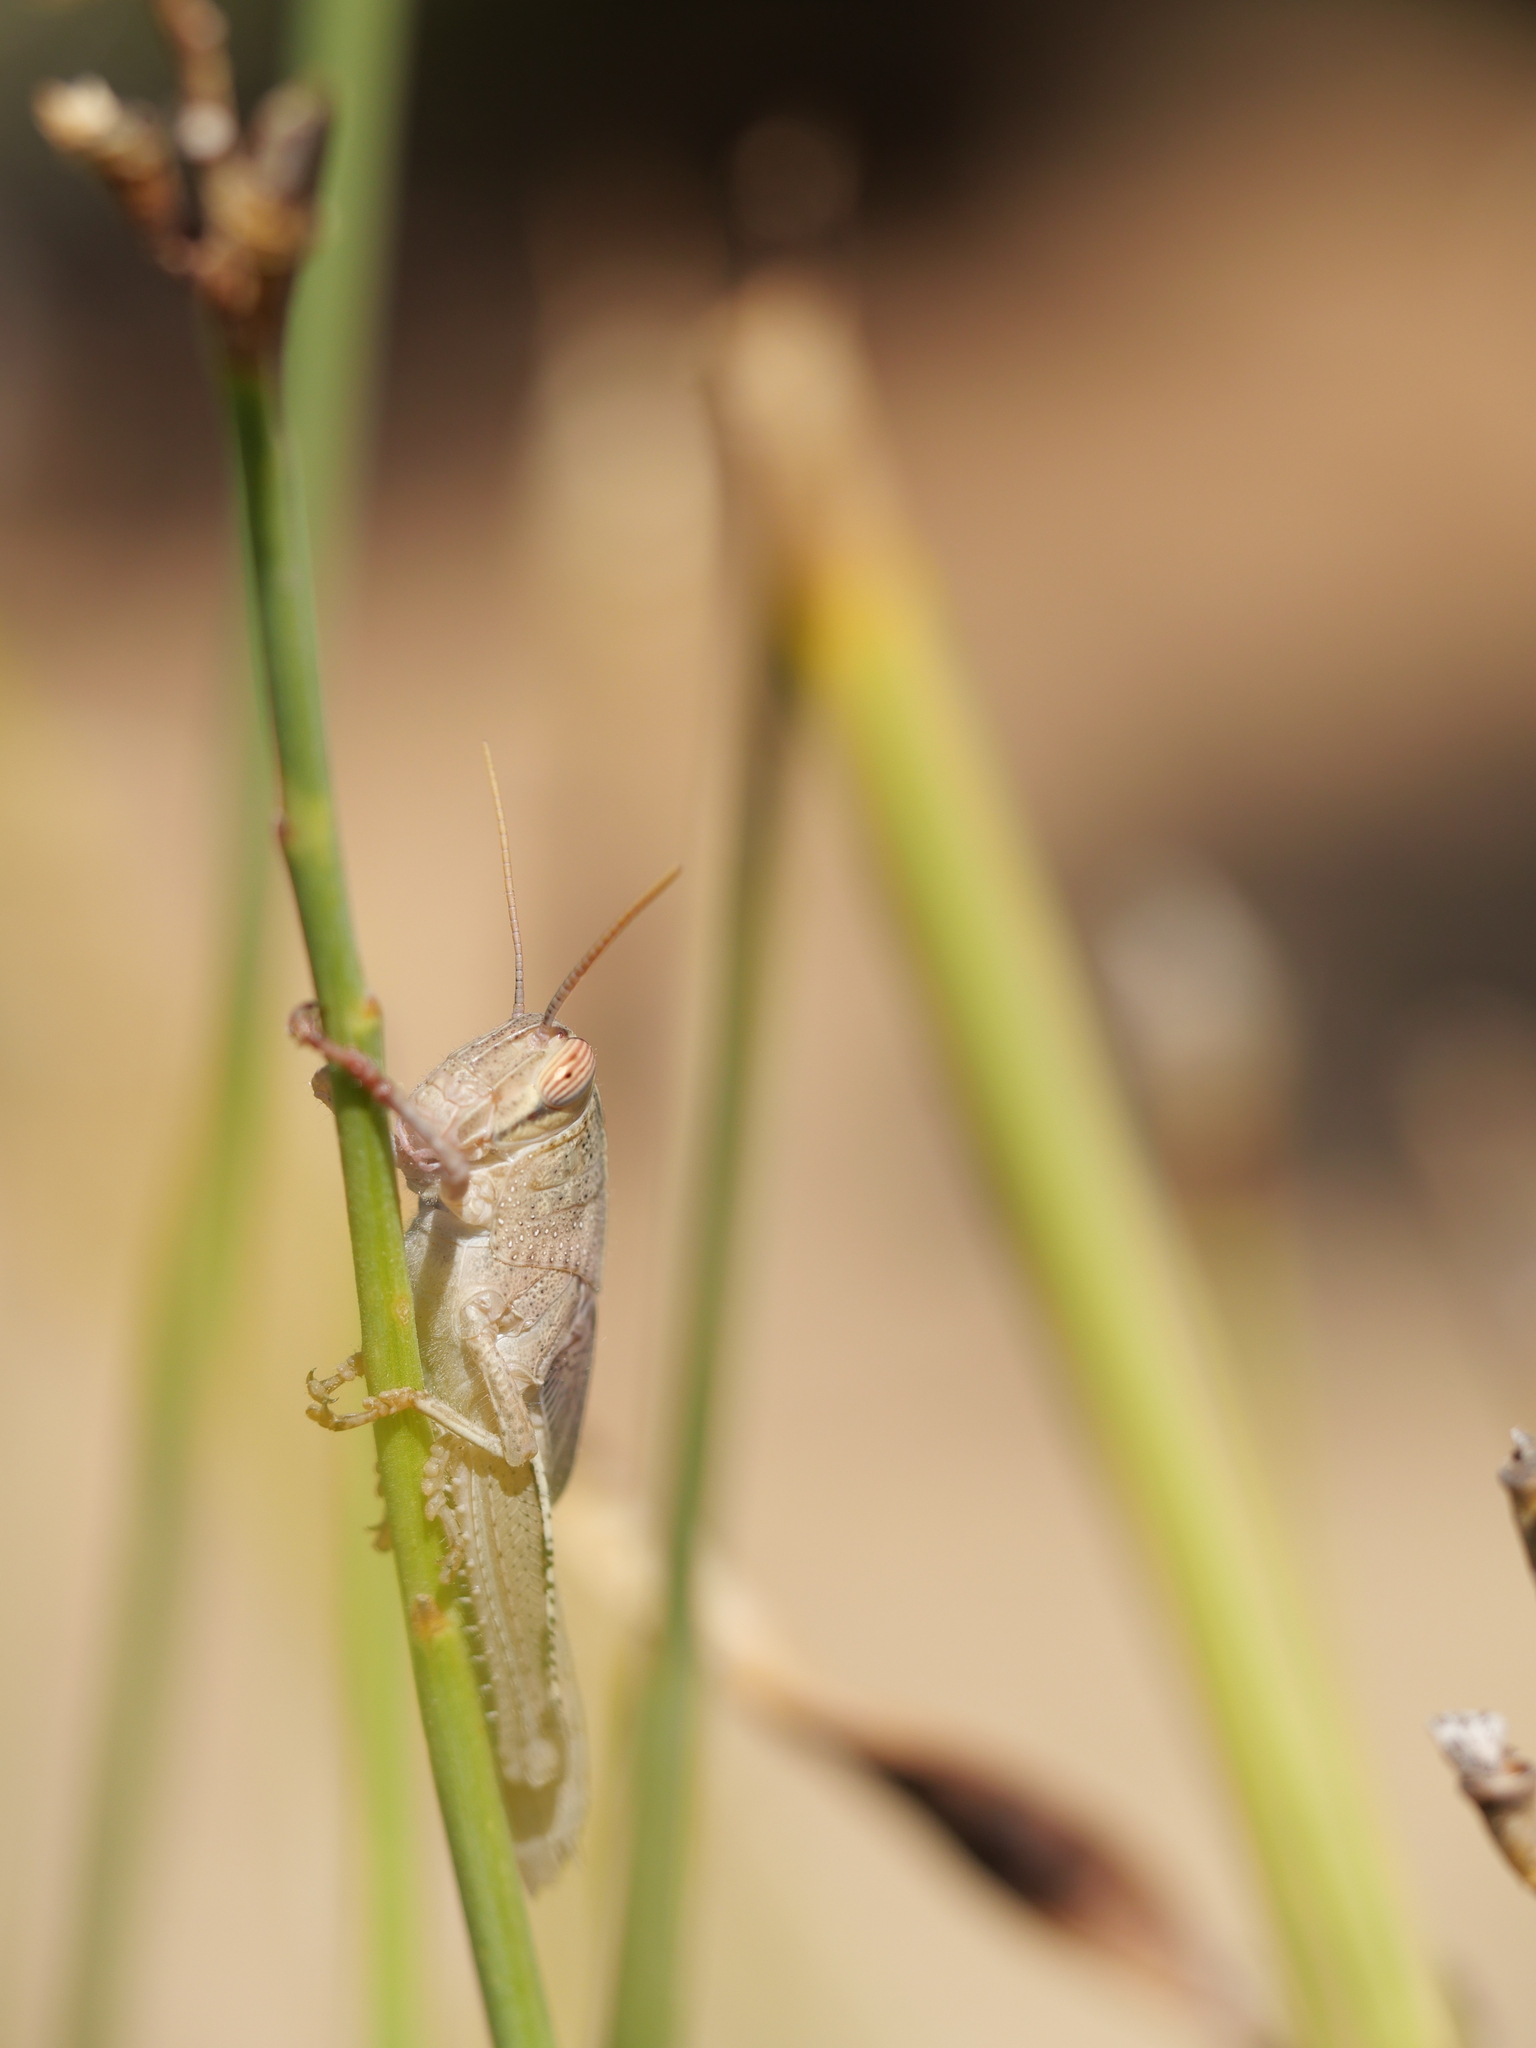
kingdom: Animalia
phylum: Arthropoda
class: Insecta
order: Orthoptera
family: Acrididae
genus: Anacridium
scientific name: Anacridium aegyptium
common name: Egyptian grasshopper
